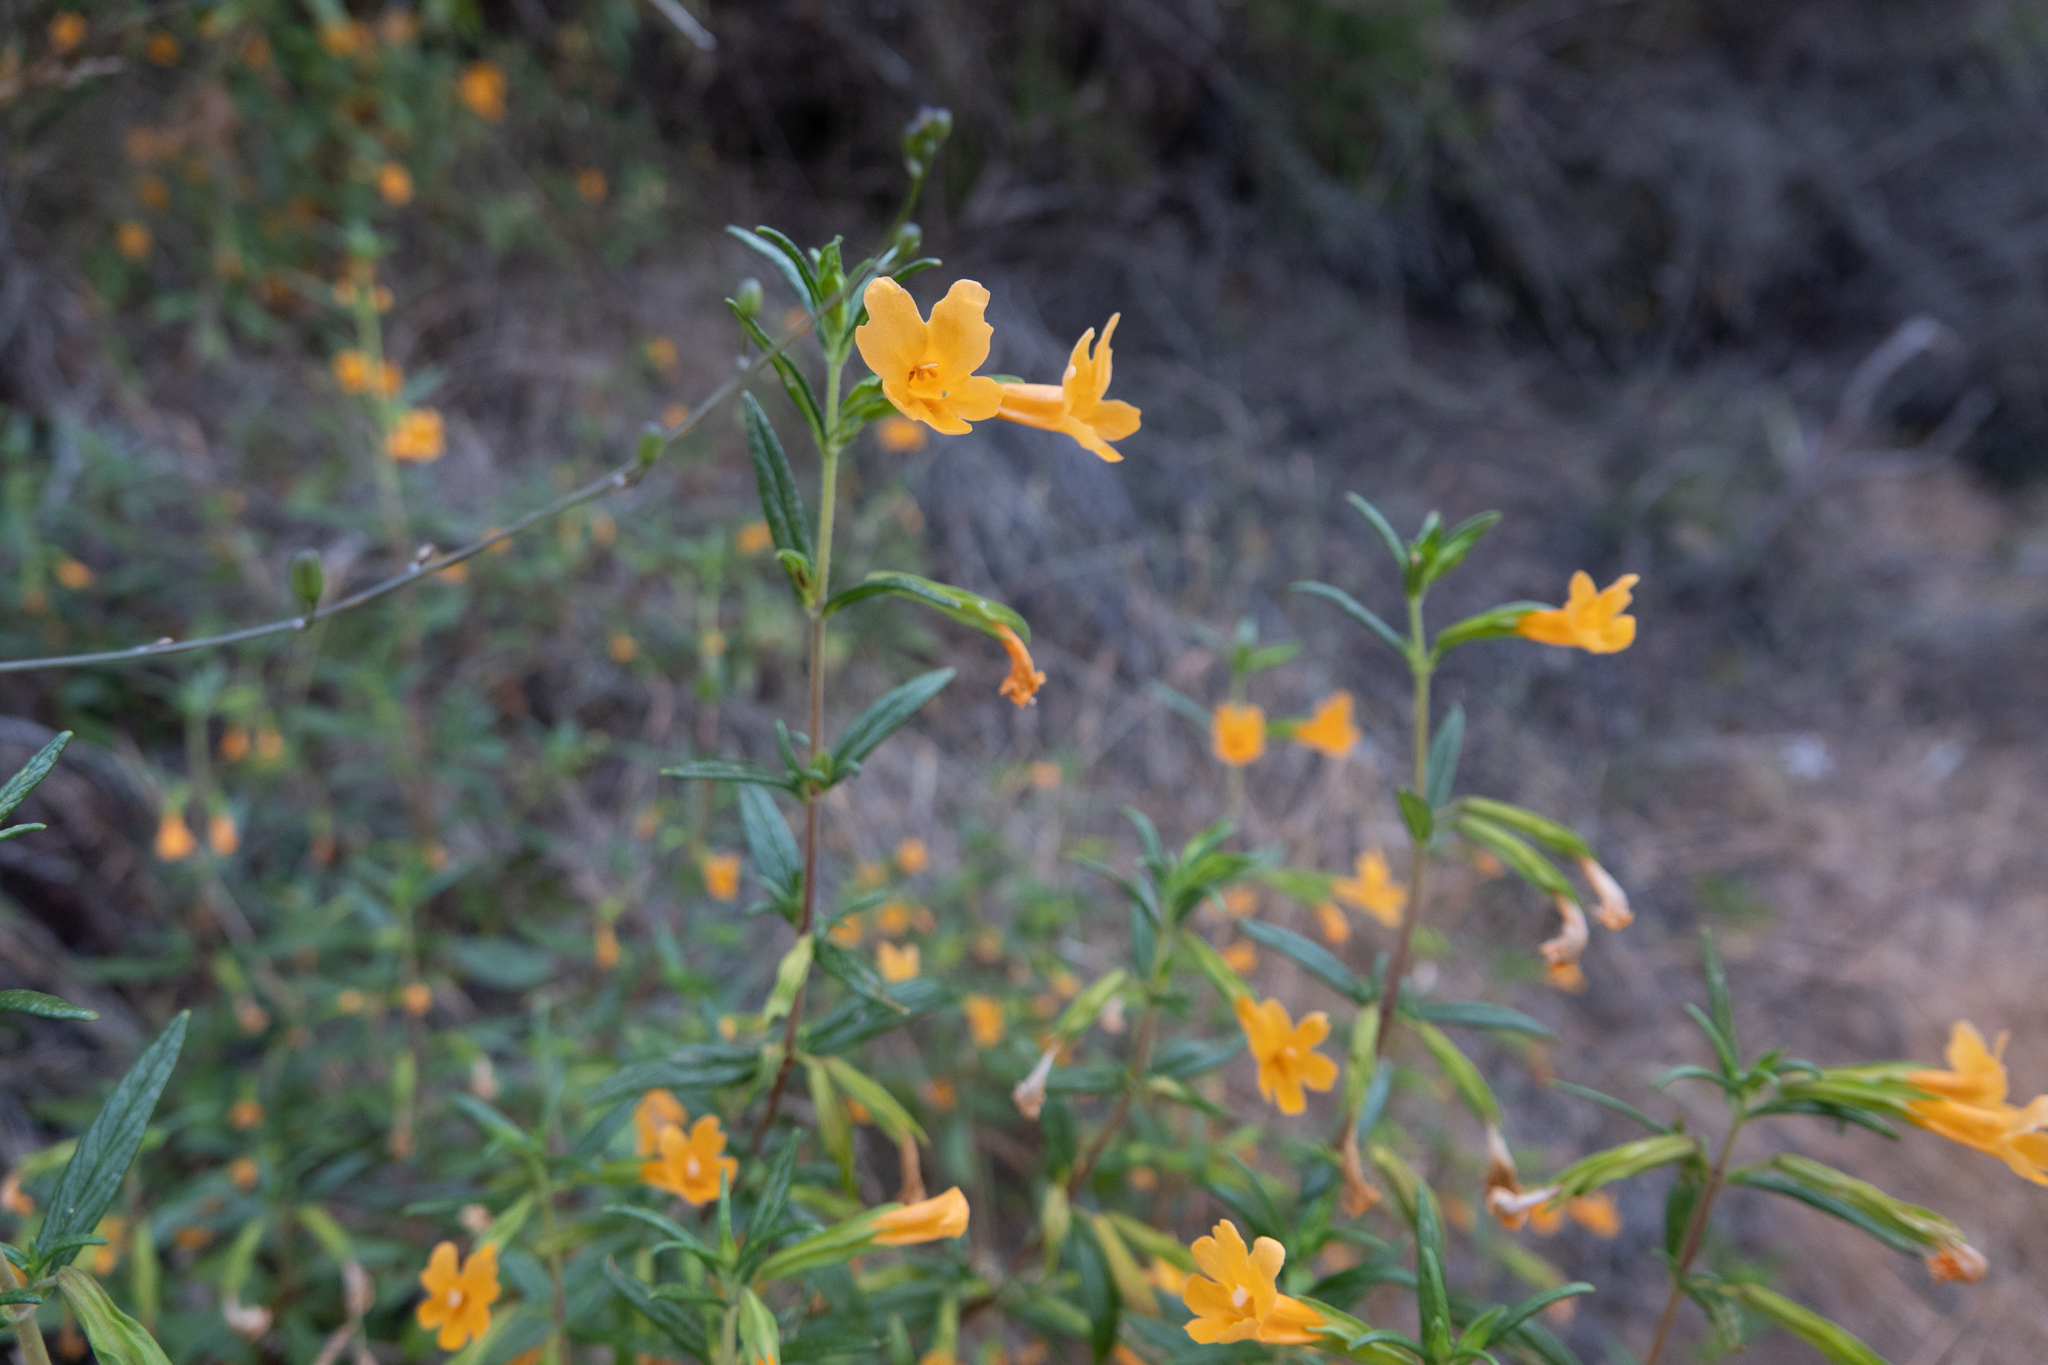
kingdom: Plantae
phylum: Tracheophyta
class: Magnoliopsida
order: Lamiales
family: Phrymaceae
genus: Diplacus
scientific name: Diplacus aurantiacus
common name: Bush monkey-flower
